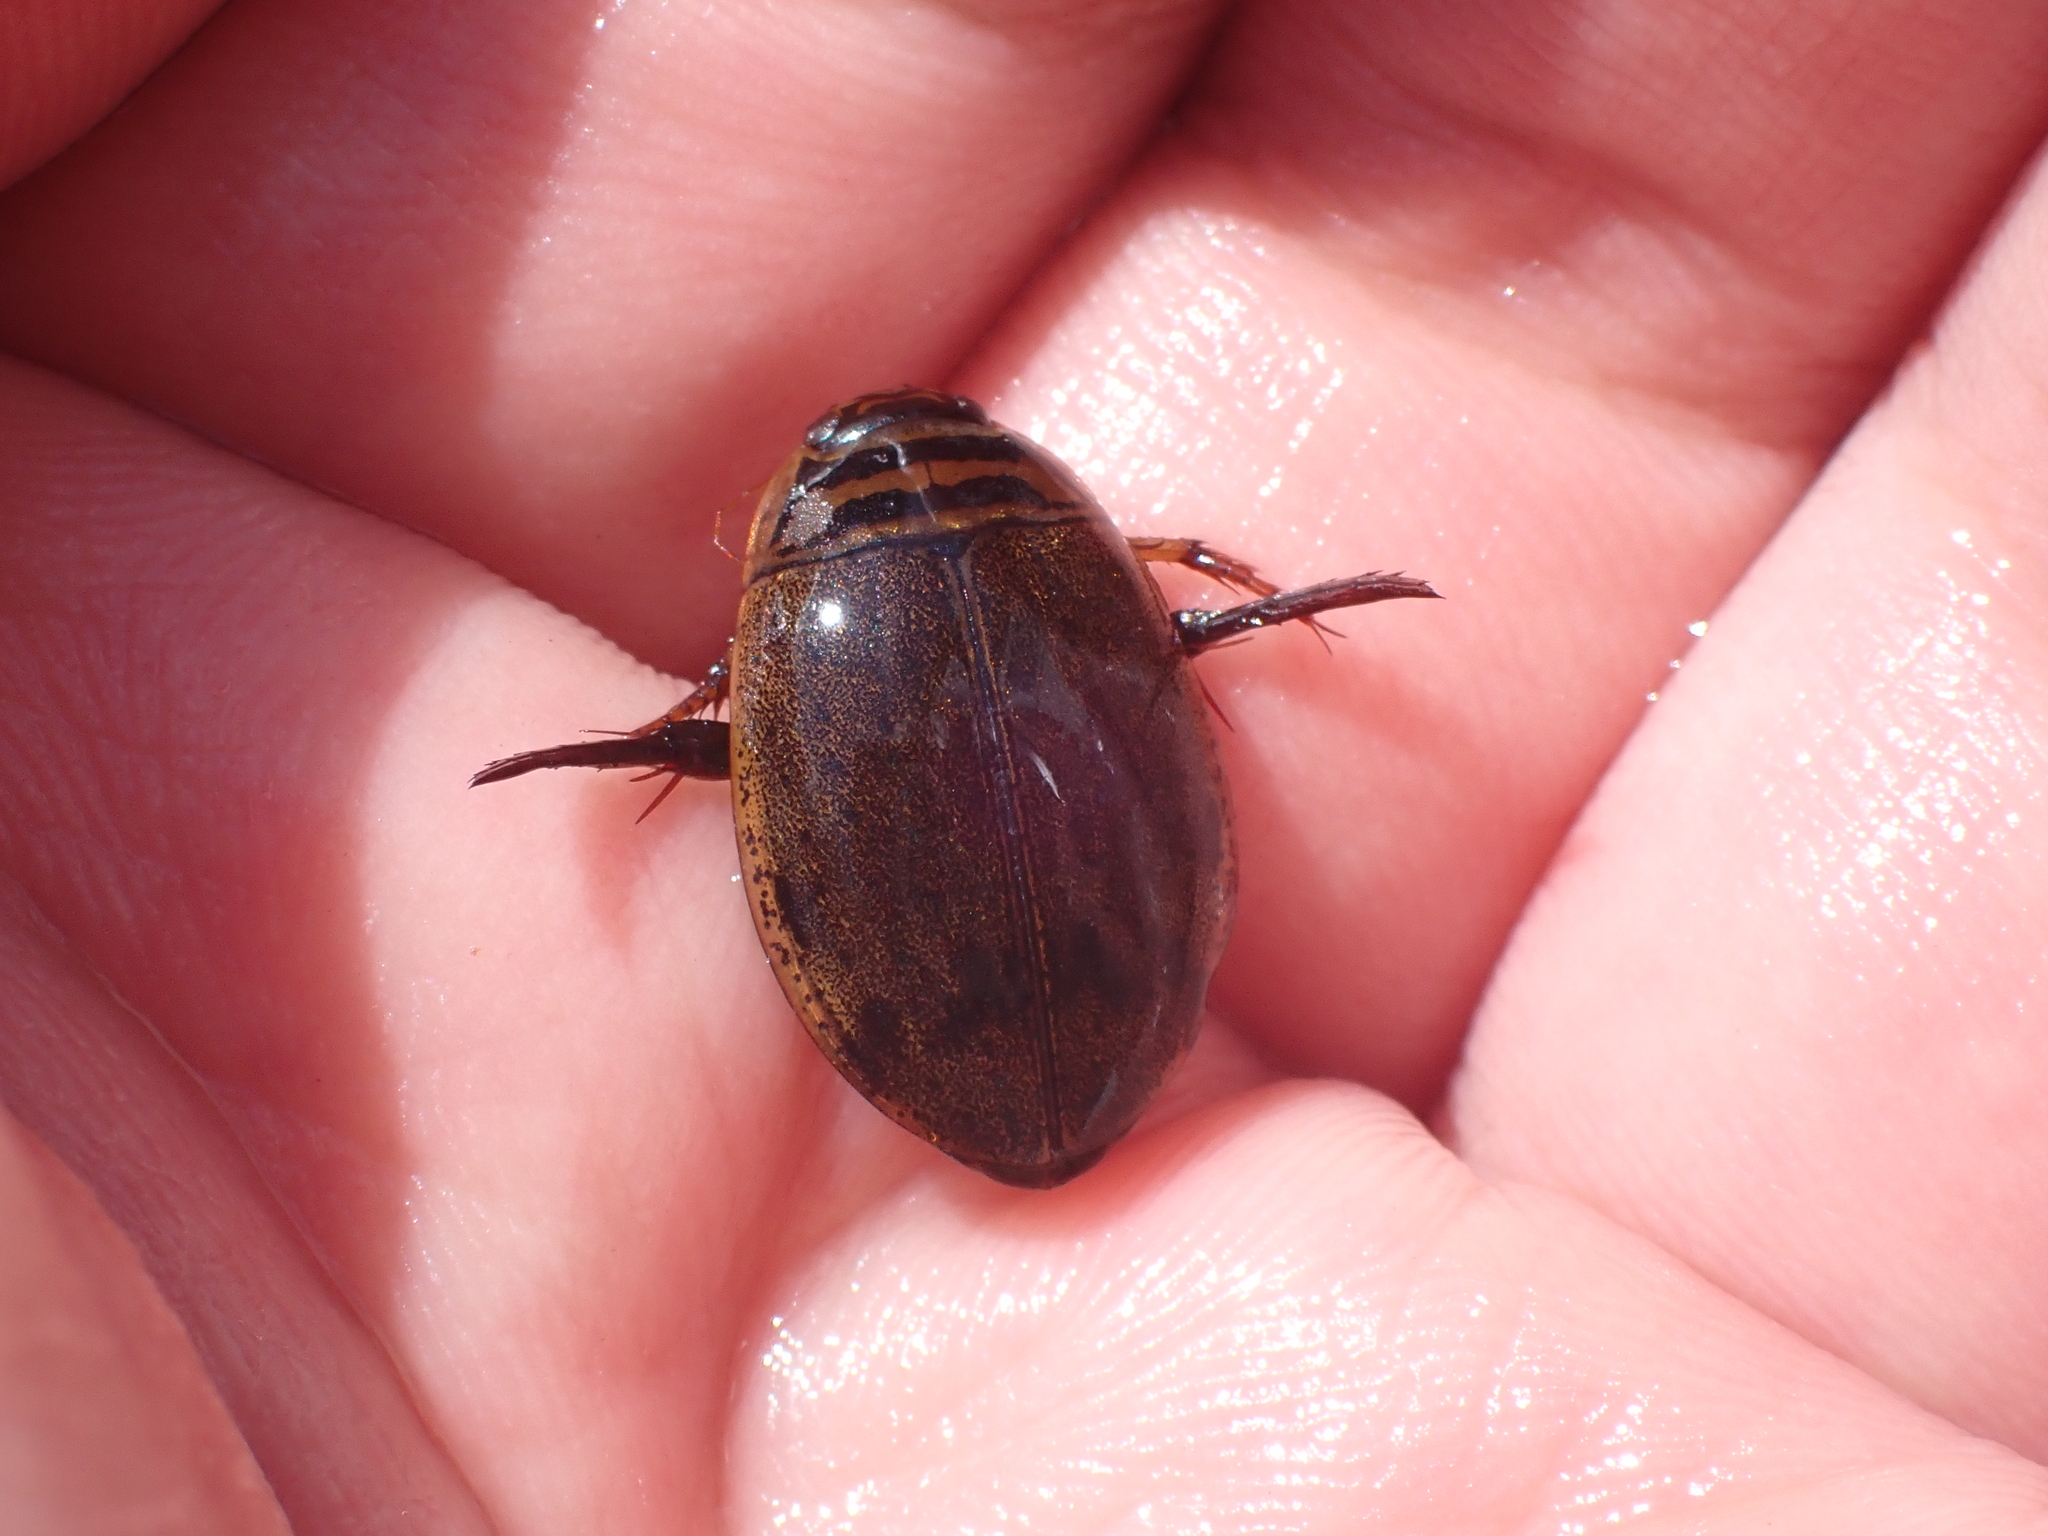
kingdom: Animalia
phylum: Arthropoda
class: Insecta
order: Coleoptera
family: Dytiscidae
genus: Acilius
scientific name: Acilius sulcatus
